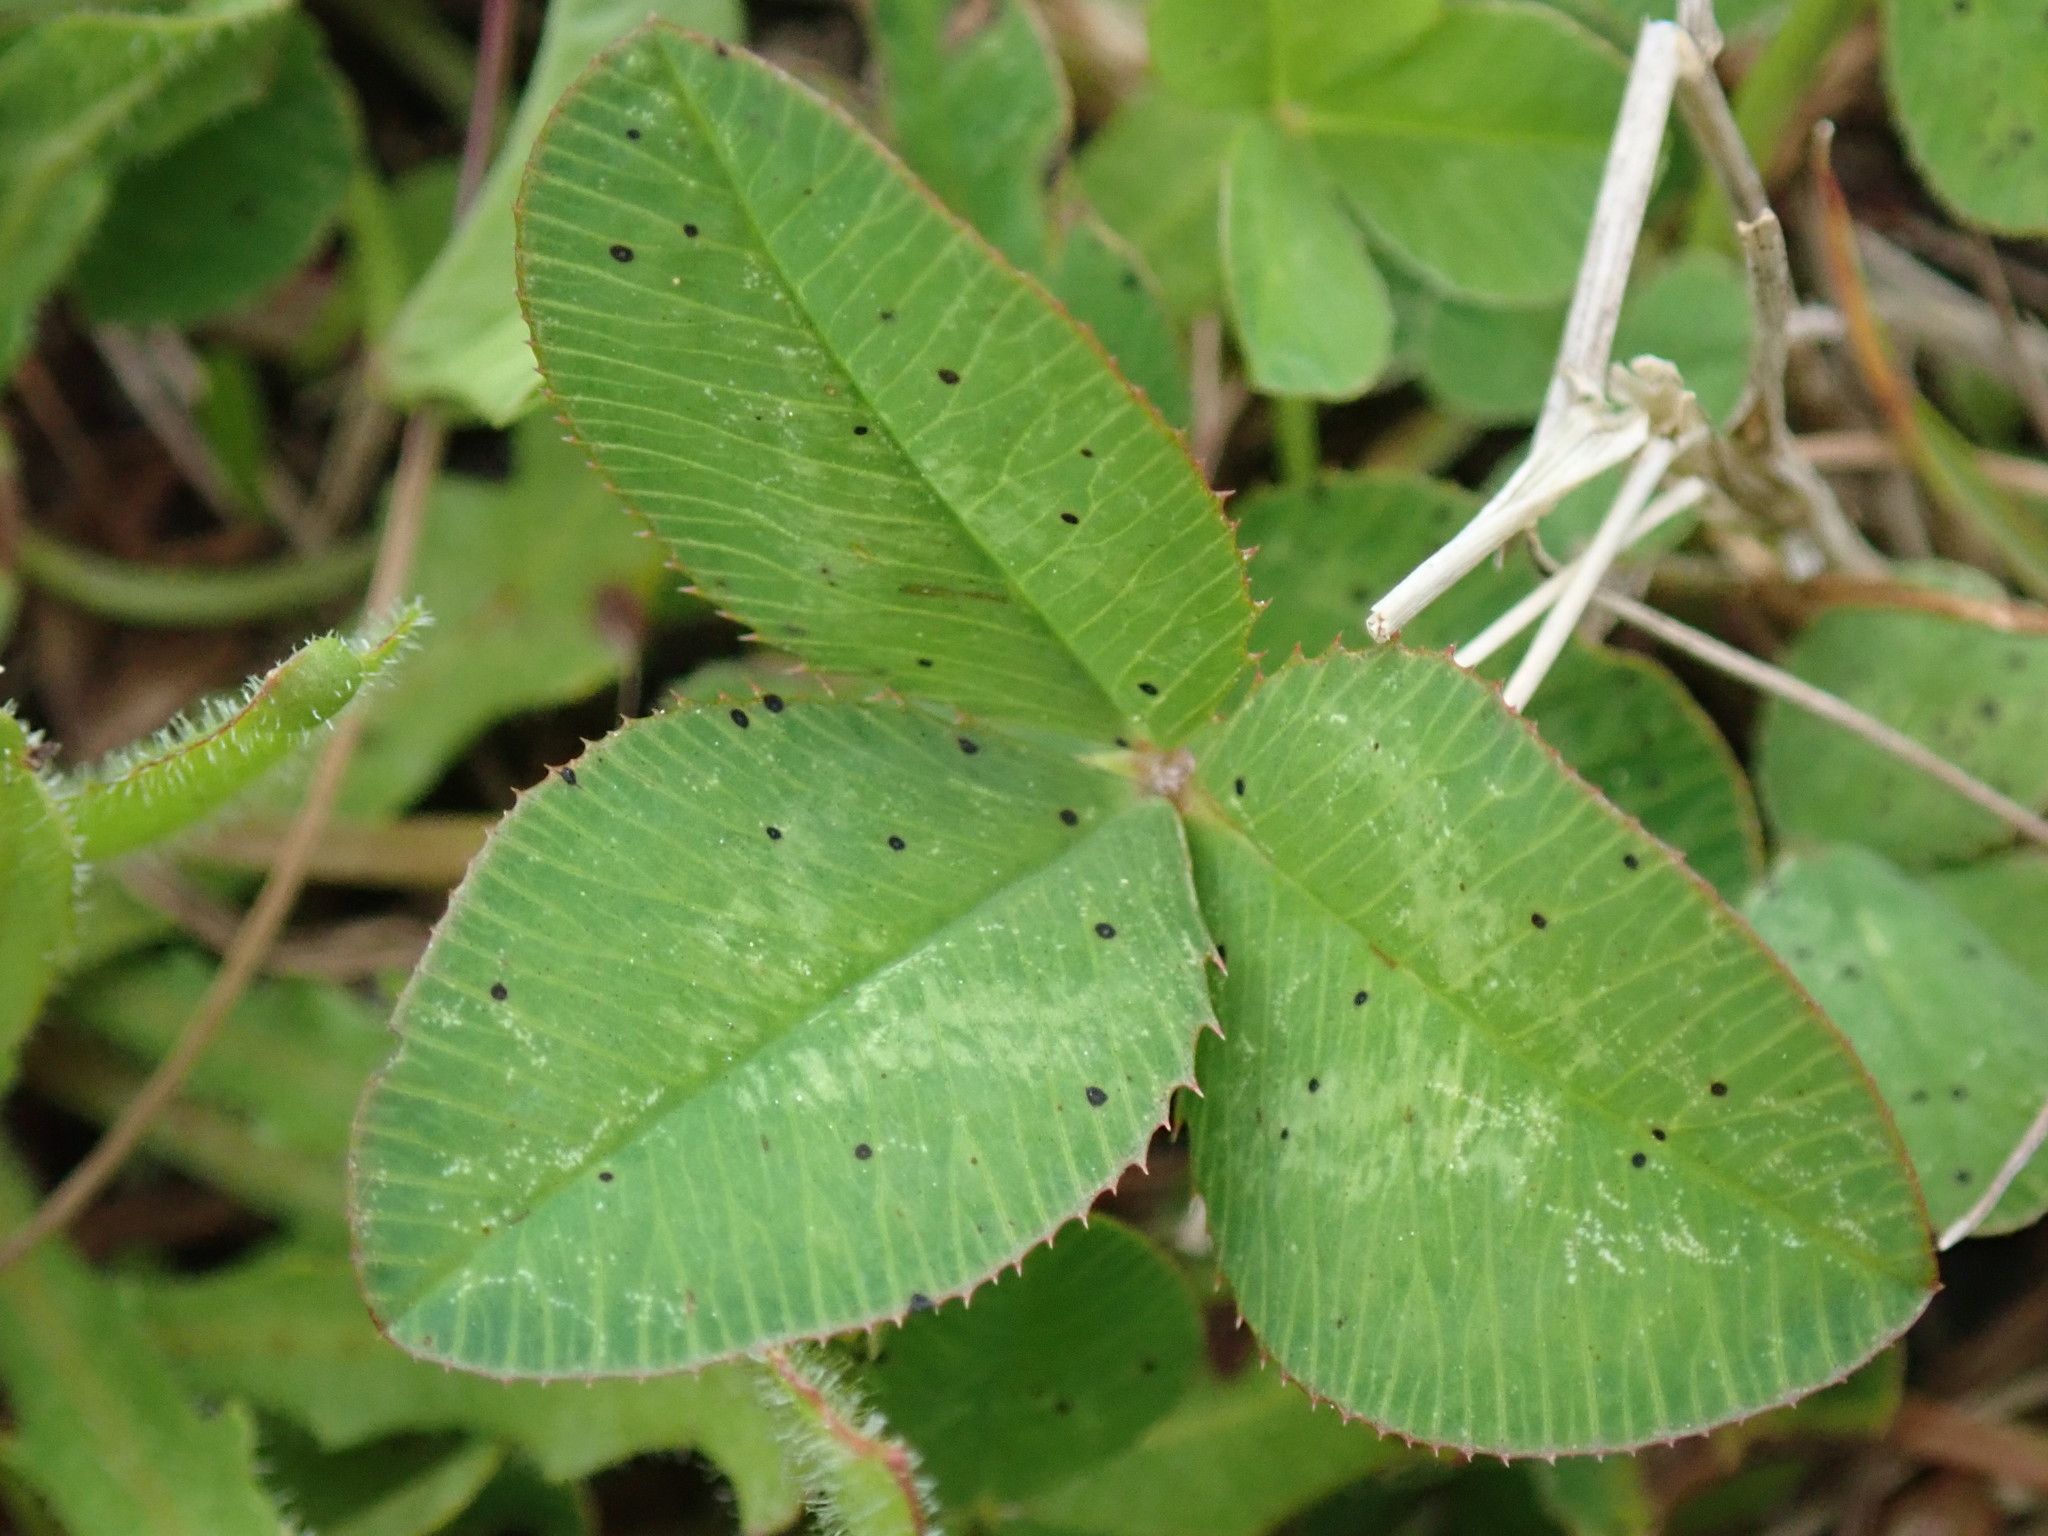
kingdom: Plantae
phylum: Tracheophyta
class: Magnoliopsida
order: Fabales
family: Fabaceae
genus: Trifolium
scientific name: Trifolium repens
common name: White clover
